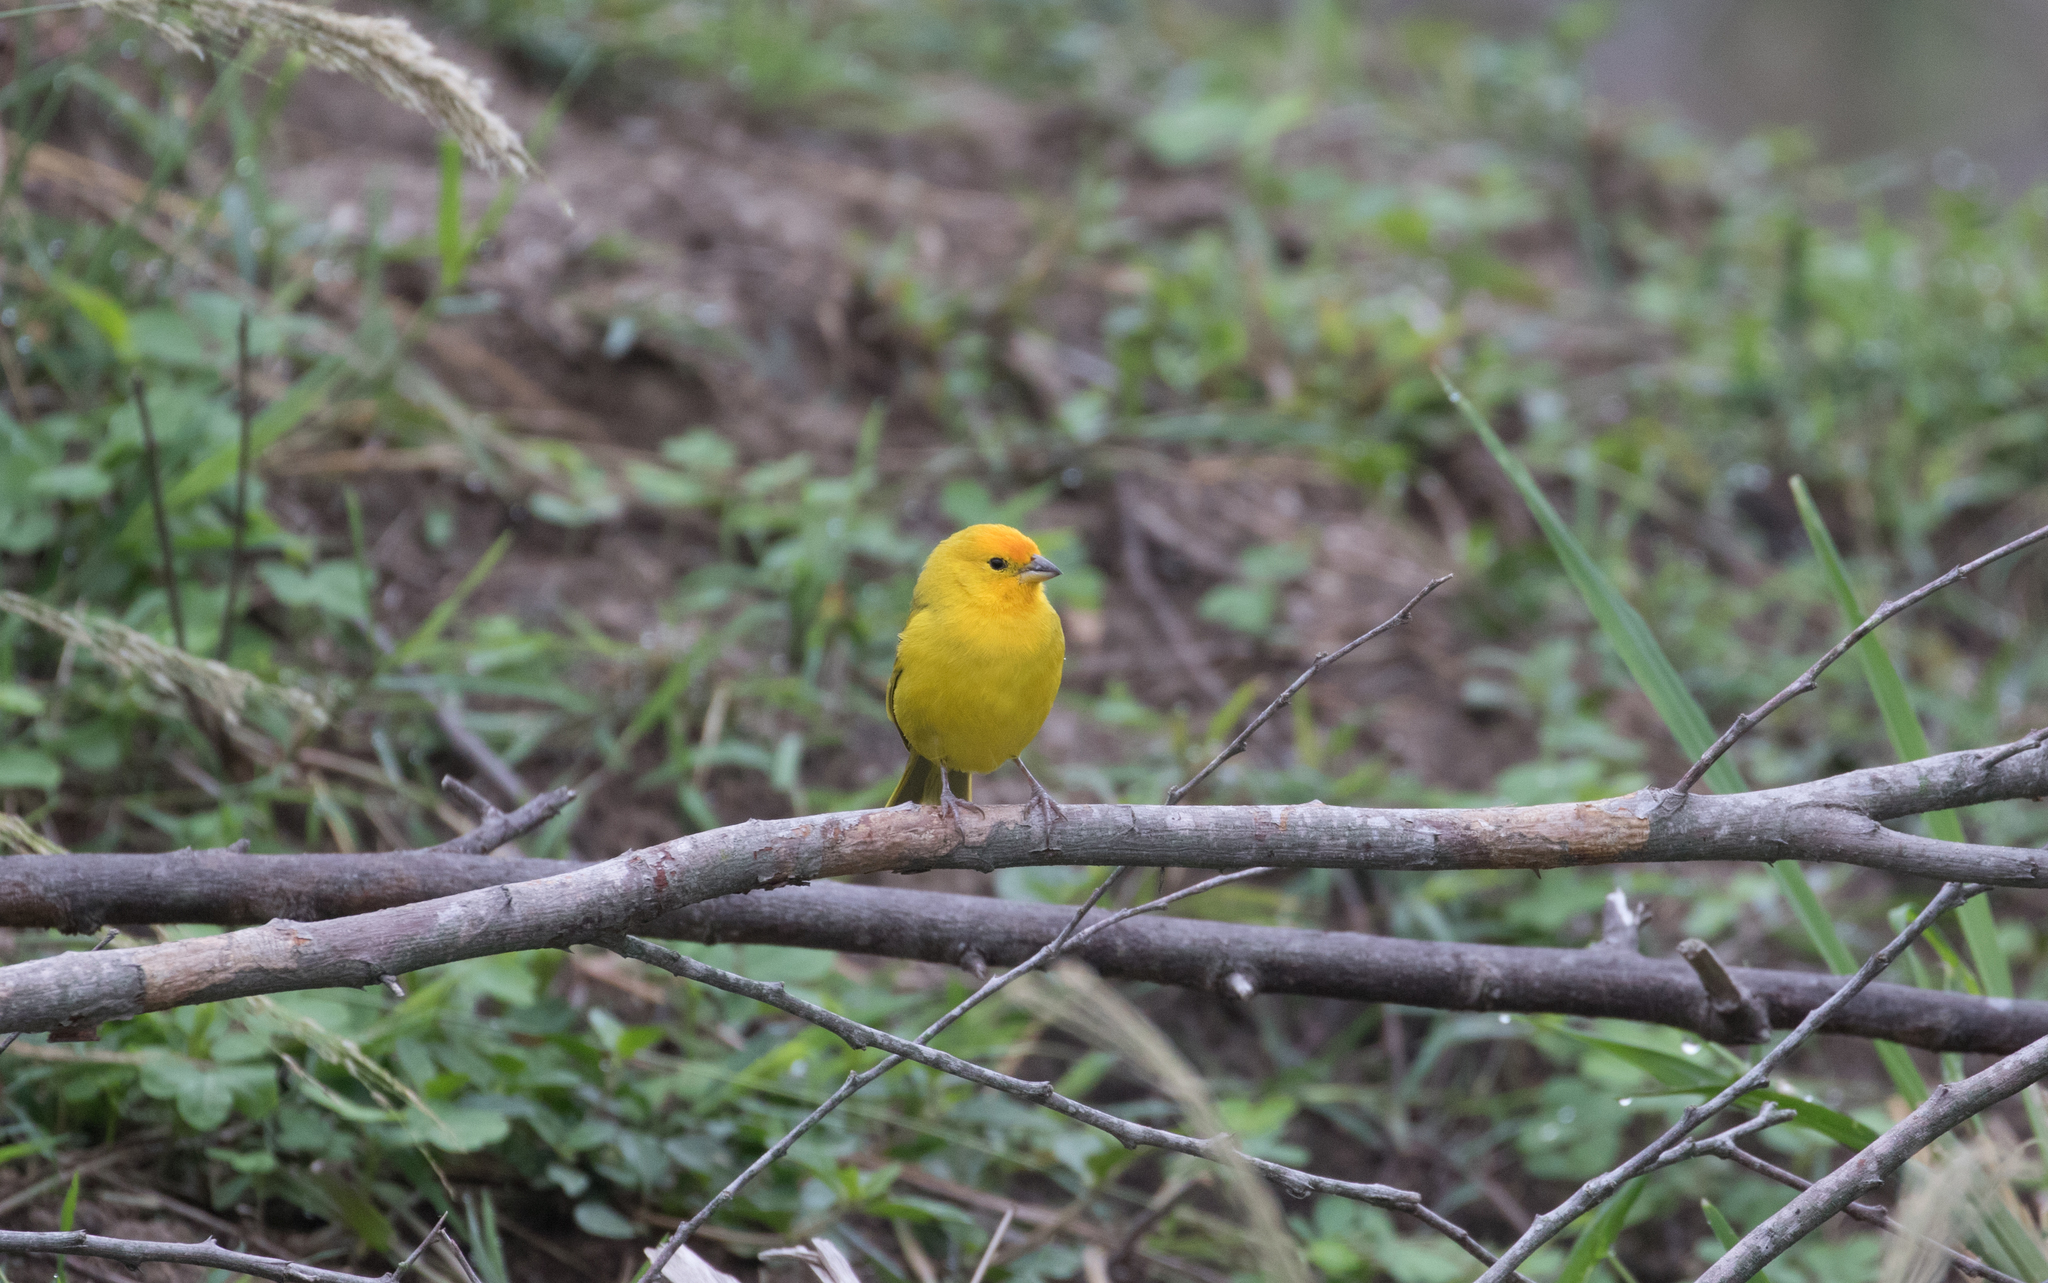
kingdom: Animalia
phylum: Chordata
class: Aves
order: Passeriformes
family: Thraupidae
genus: Sicalis
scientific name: Sicalis flaveola
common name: Saffron finch
